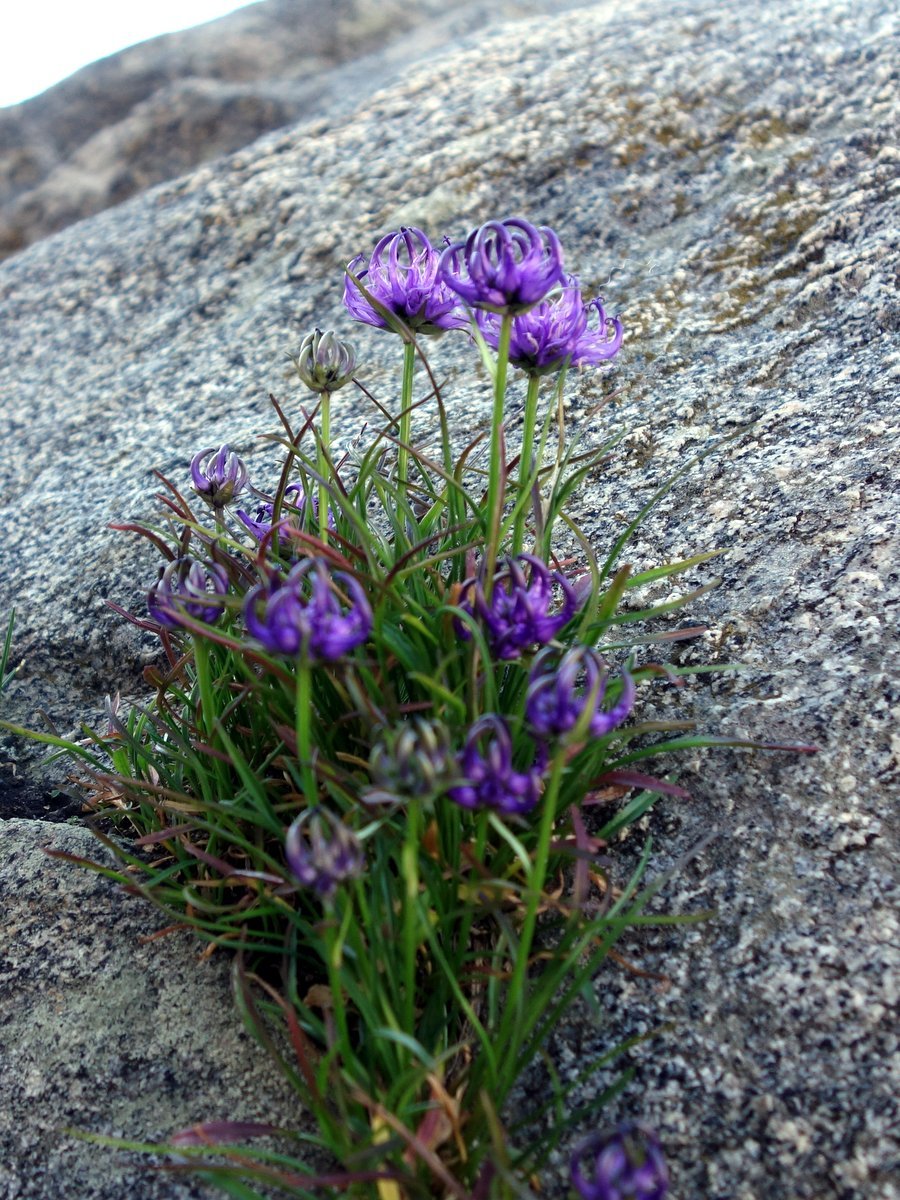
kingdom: Plantae
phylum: Tracheophyta
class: Magnoliopsida
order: Asterales
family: Campanulaceae
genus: Phyteuma
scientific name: Phyteuma hemisphaericum
